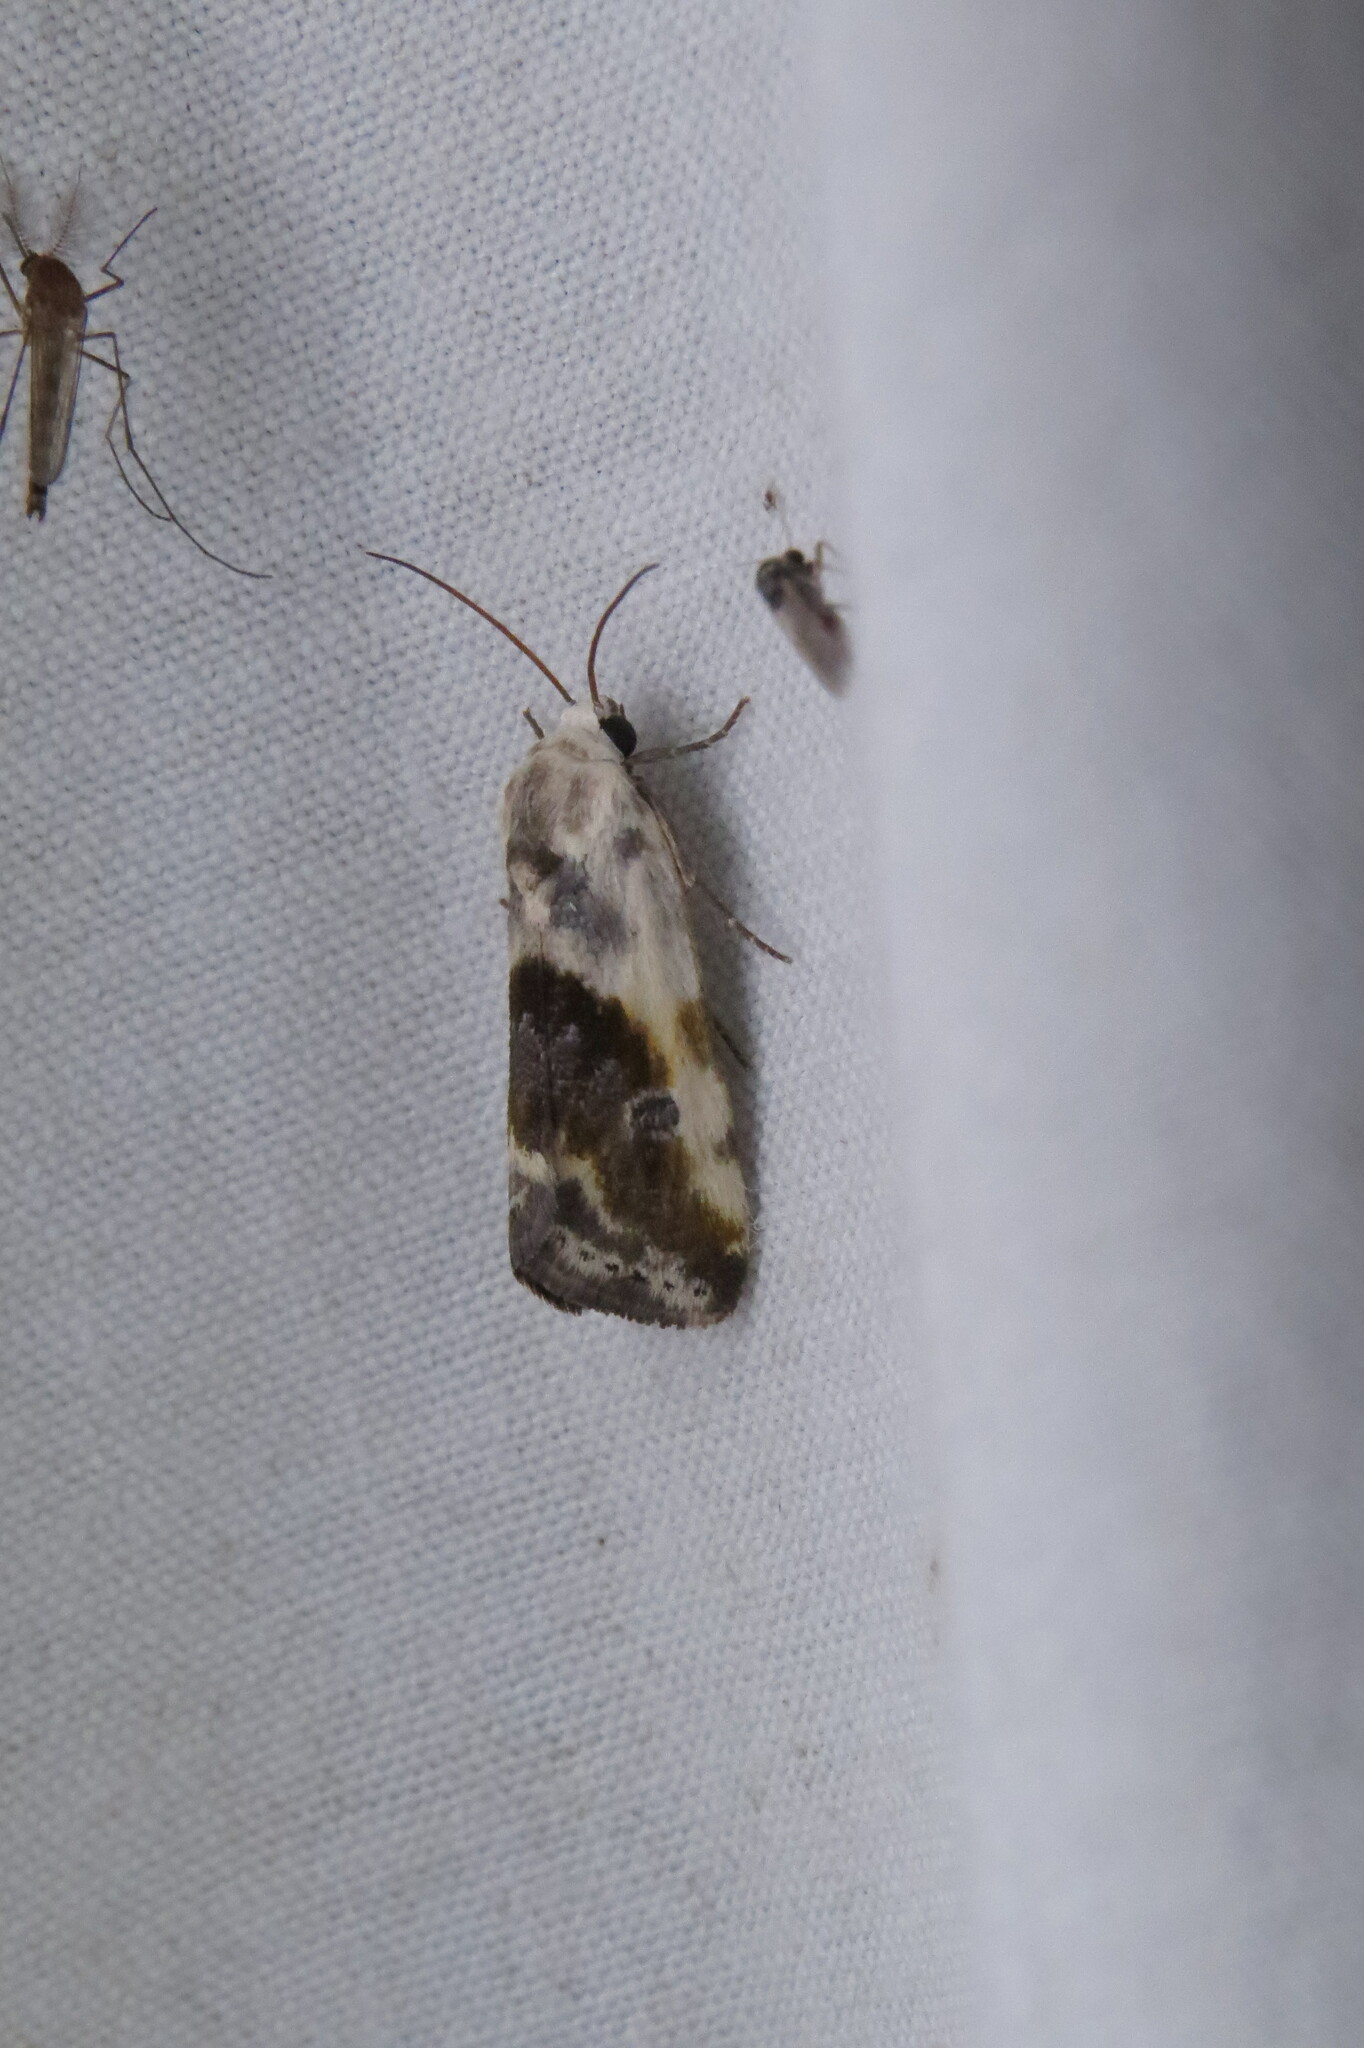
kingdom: Animalia
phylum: Arthropoda
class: Insecta
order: Lepidoptera
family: Noctuidae
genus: Acontia
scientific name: Acontia candefacta
